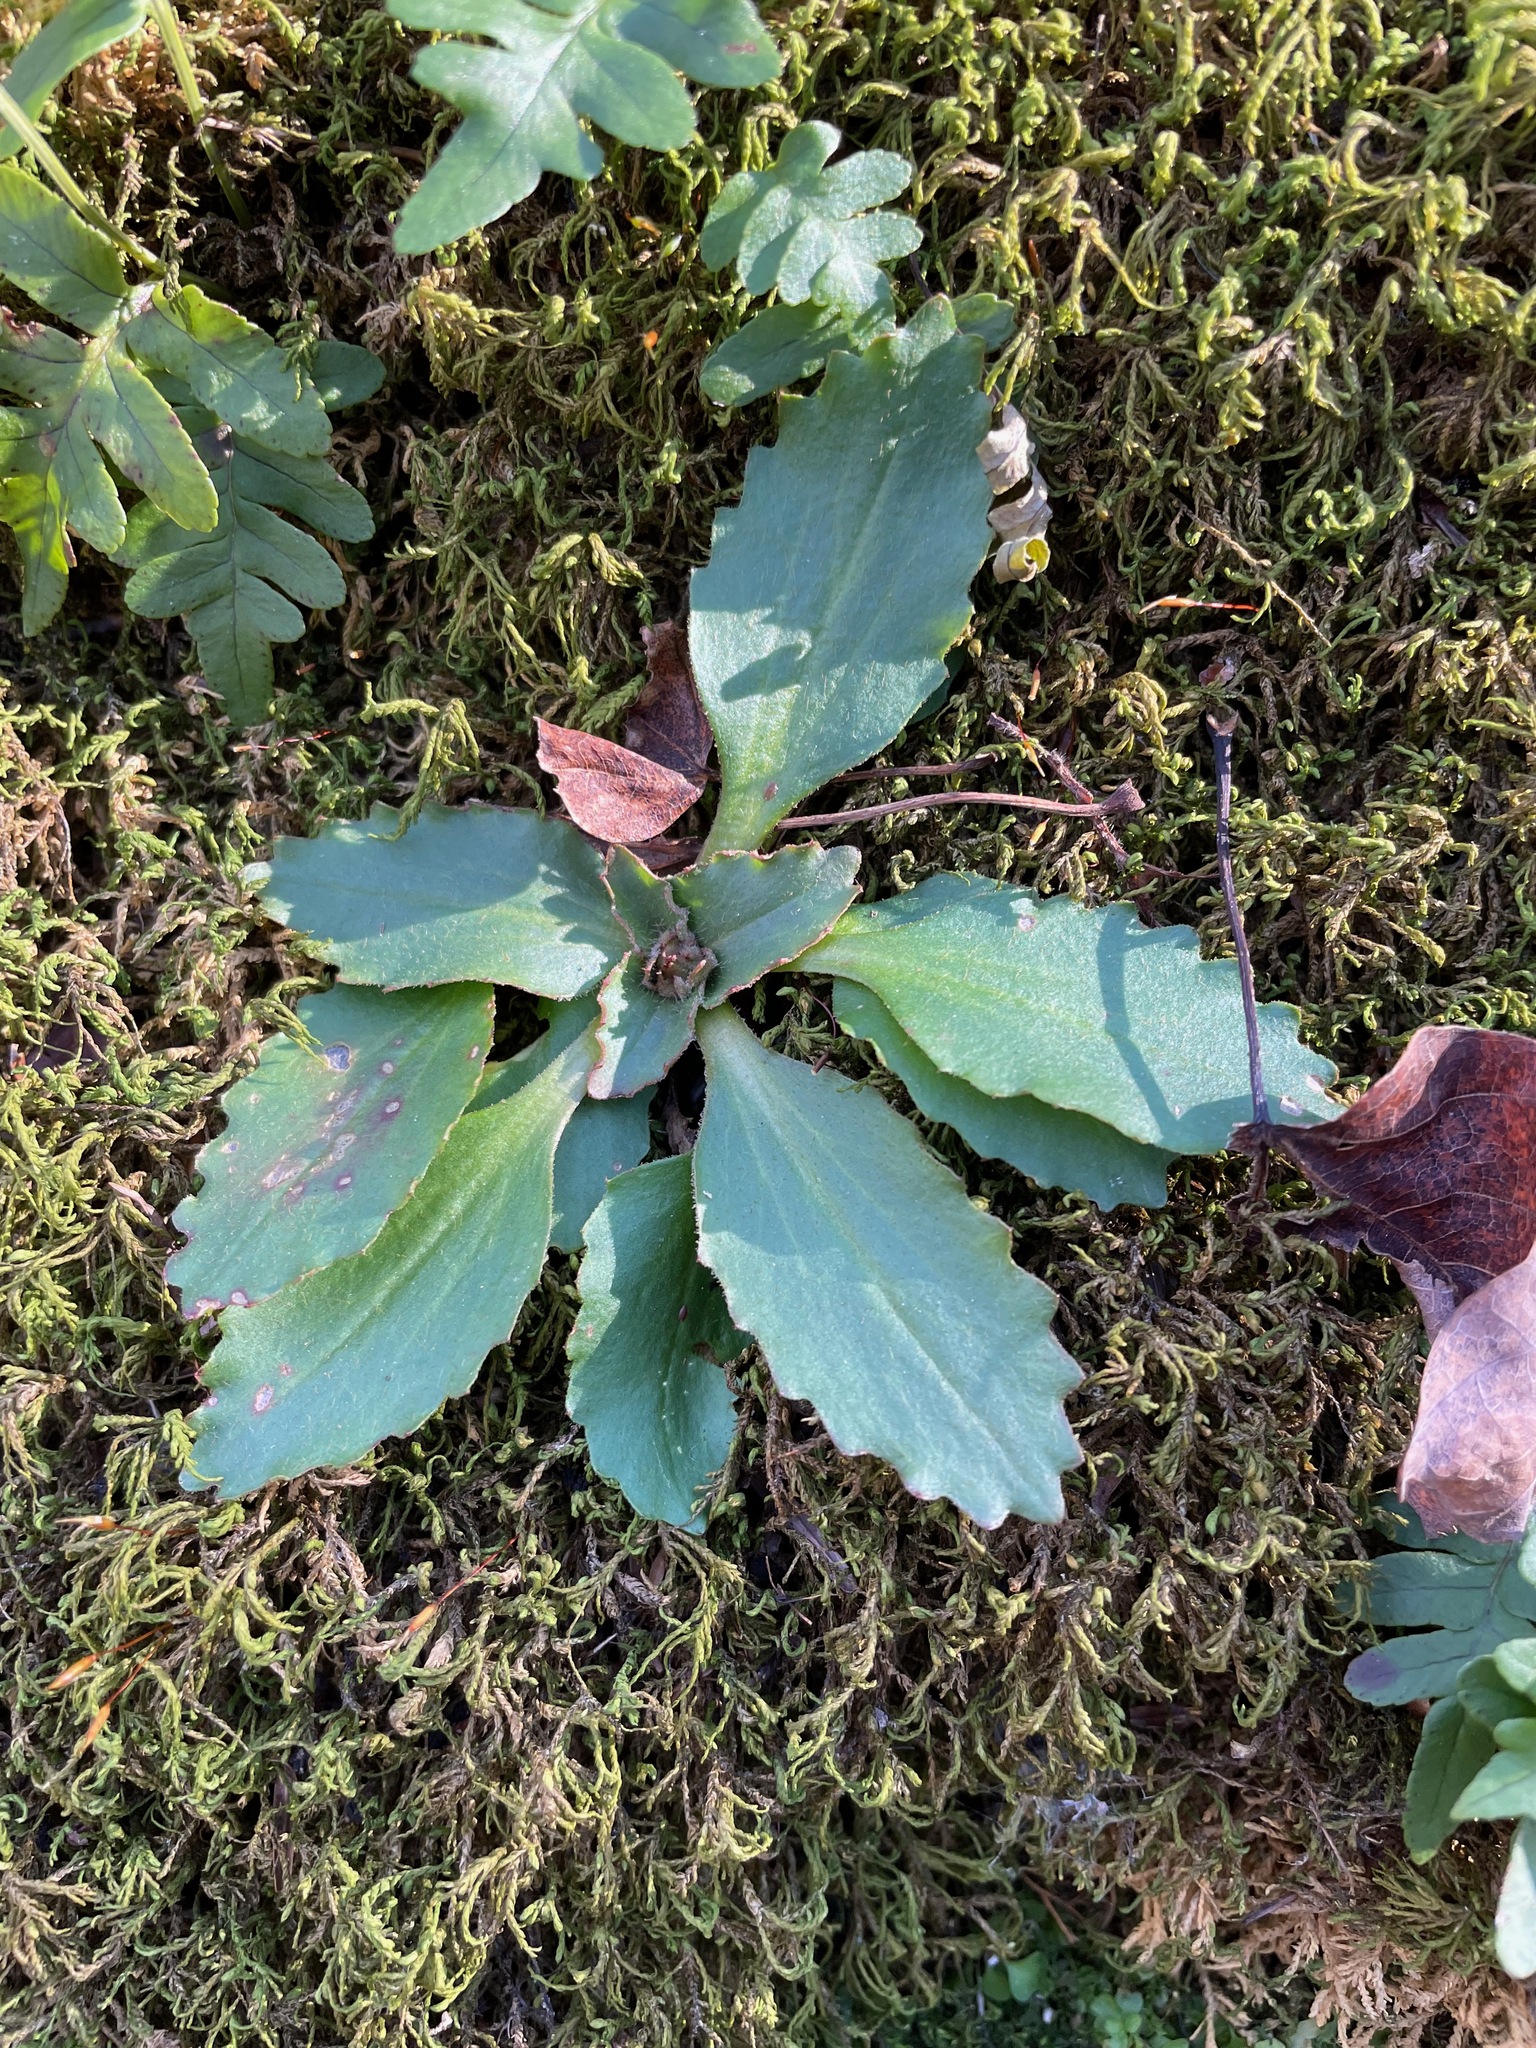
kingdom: Plantae
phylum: Tracheophyta
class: Magnoliopsida
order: Saxifragales
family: Saxifragaceae
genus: Micranthes
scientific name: Micranthes virginiensis
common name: Early saxifrage
